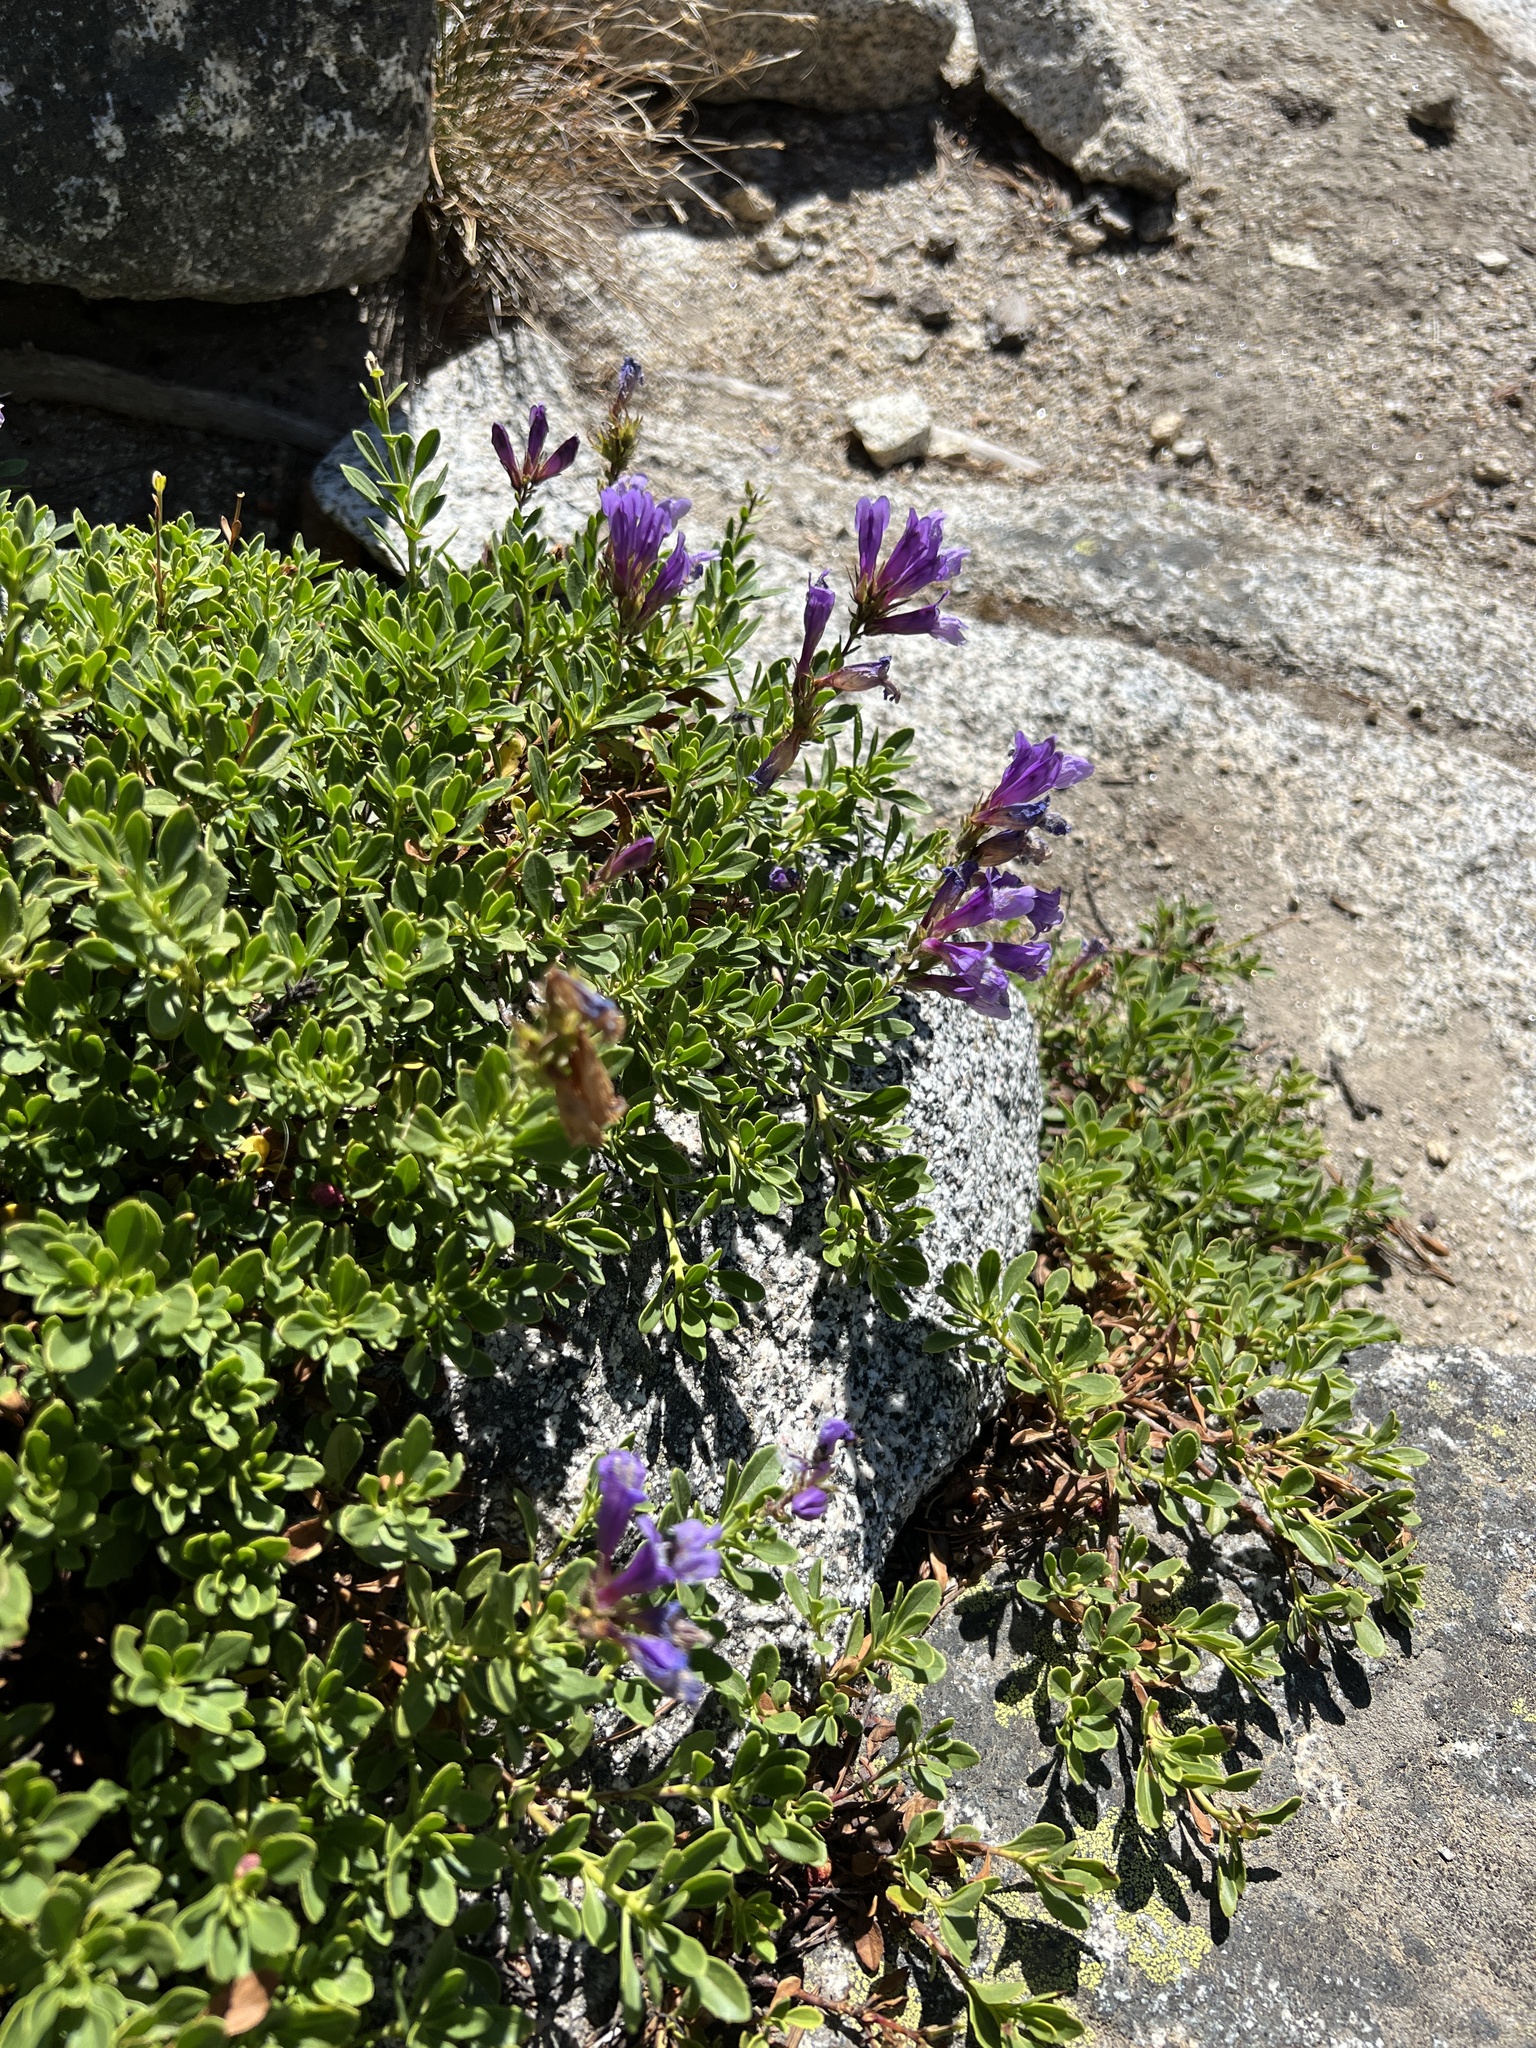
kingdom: Plantae
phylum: Tracheophyta
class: Magnoliopsida
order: Lamiales
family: Plantaginaceae
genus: Penstemon
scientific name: Penstemon davidsonii
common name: Davidson's penstemon
